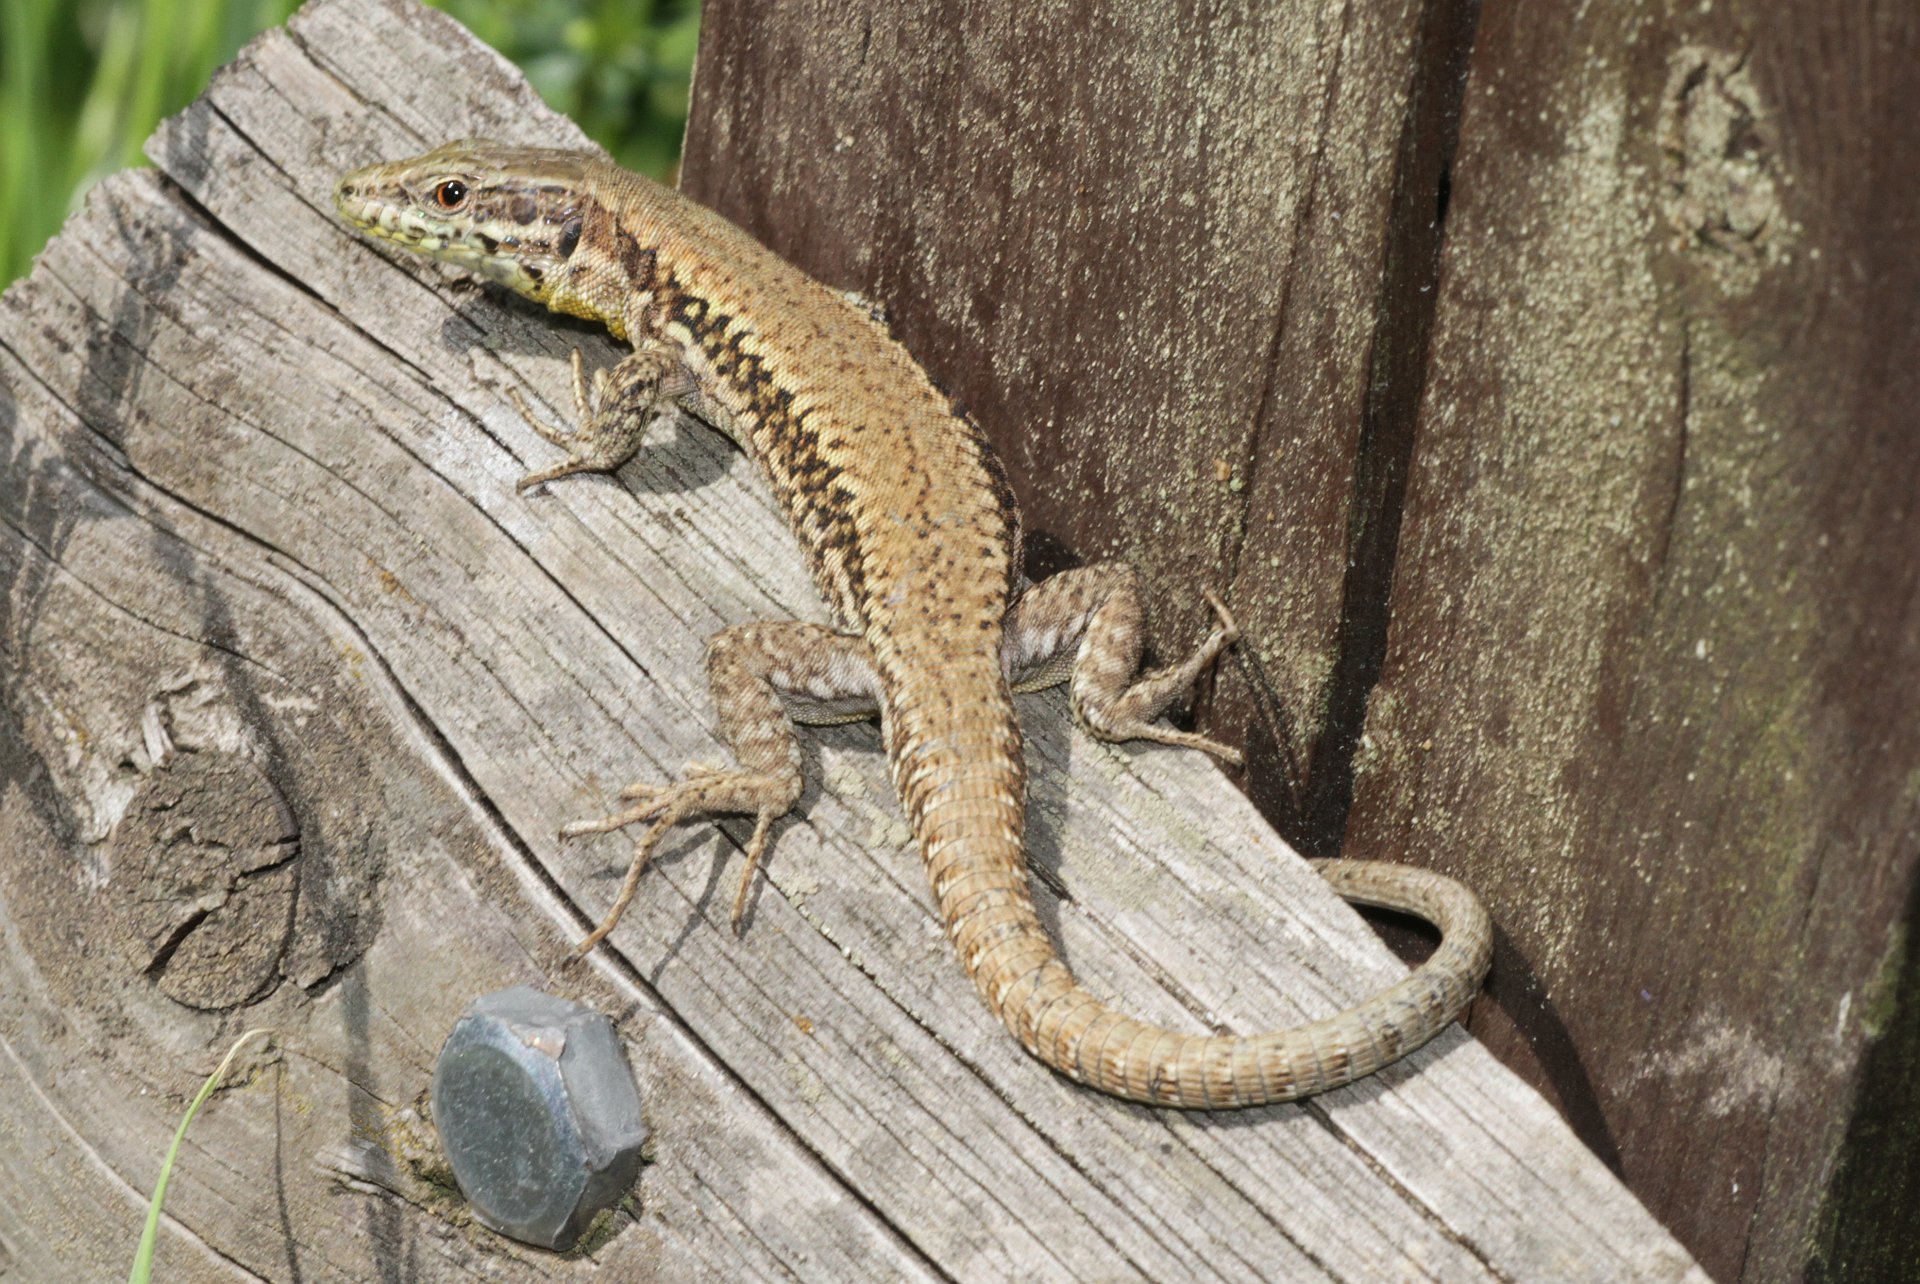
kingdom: Animalia
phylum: Chordata
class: Squamata
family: Lacertidae
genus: Podarcis
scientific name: Podarcis muralis
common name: Common wall lizard
